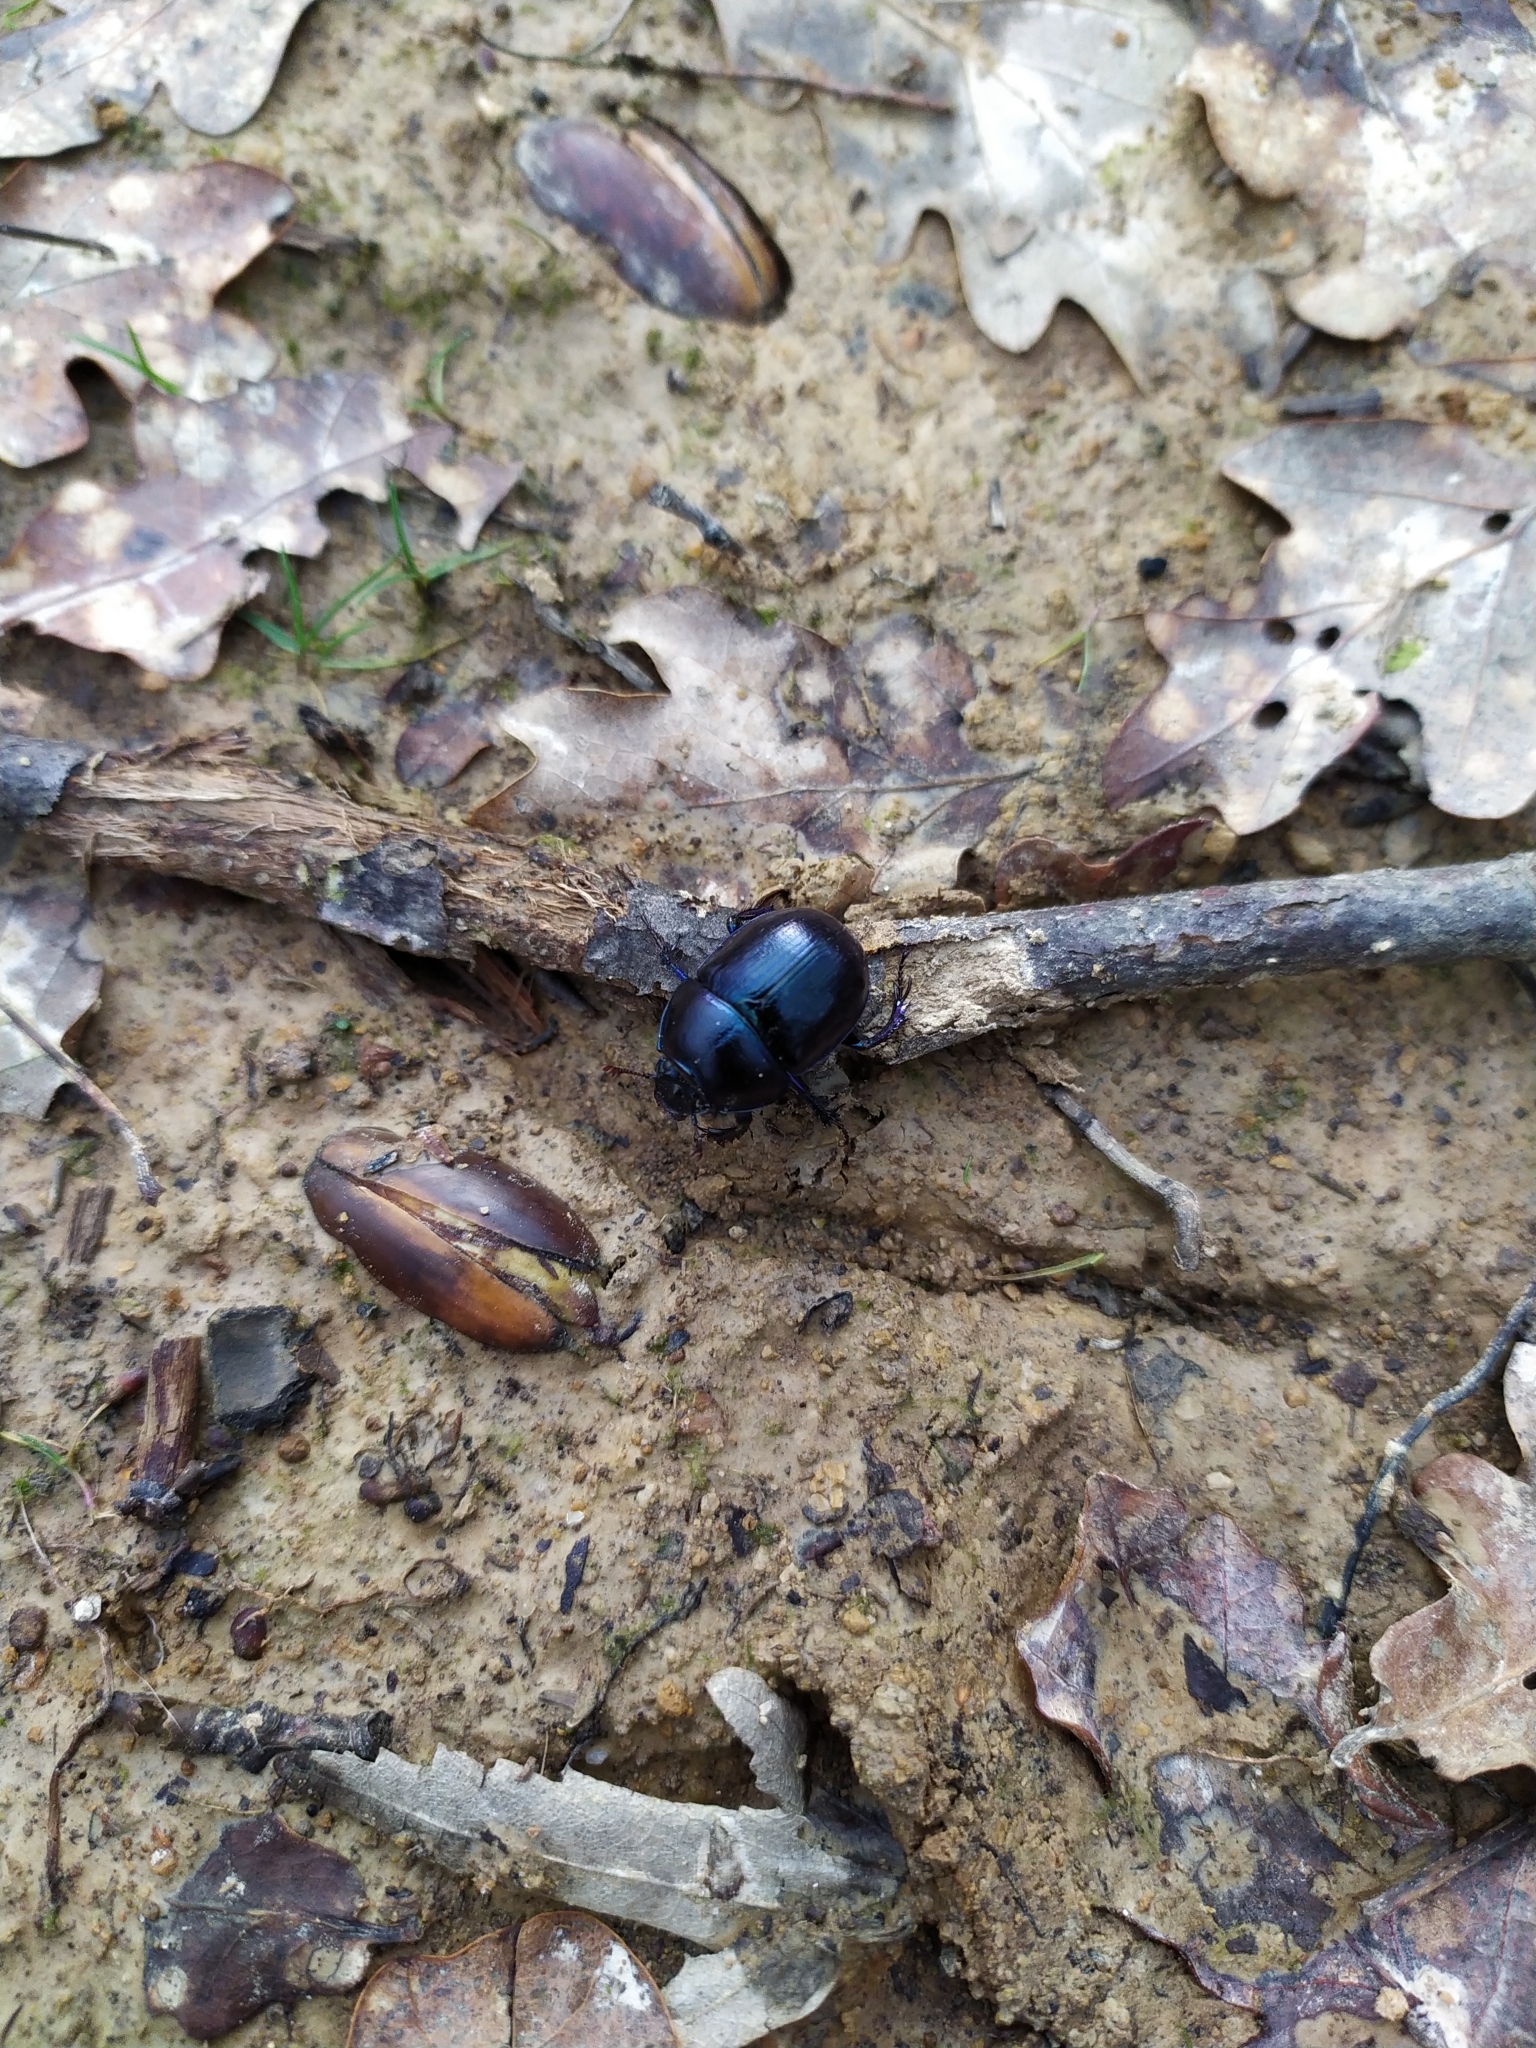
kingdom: Animalia
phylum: Arthropoda
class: Insecta
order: Coleoptera
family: Geotrupidae
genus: Anoplotrupes
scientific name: Anoplotrupes stercorosus
